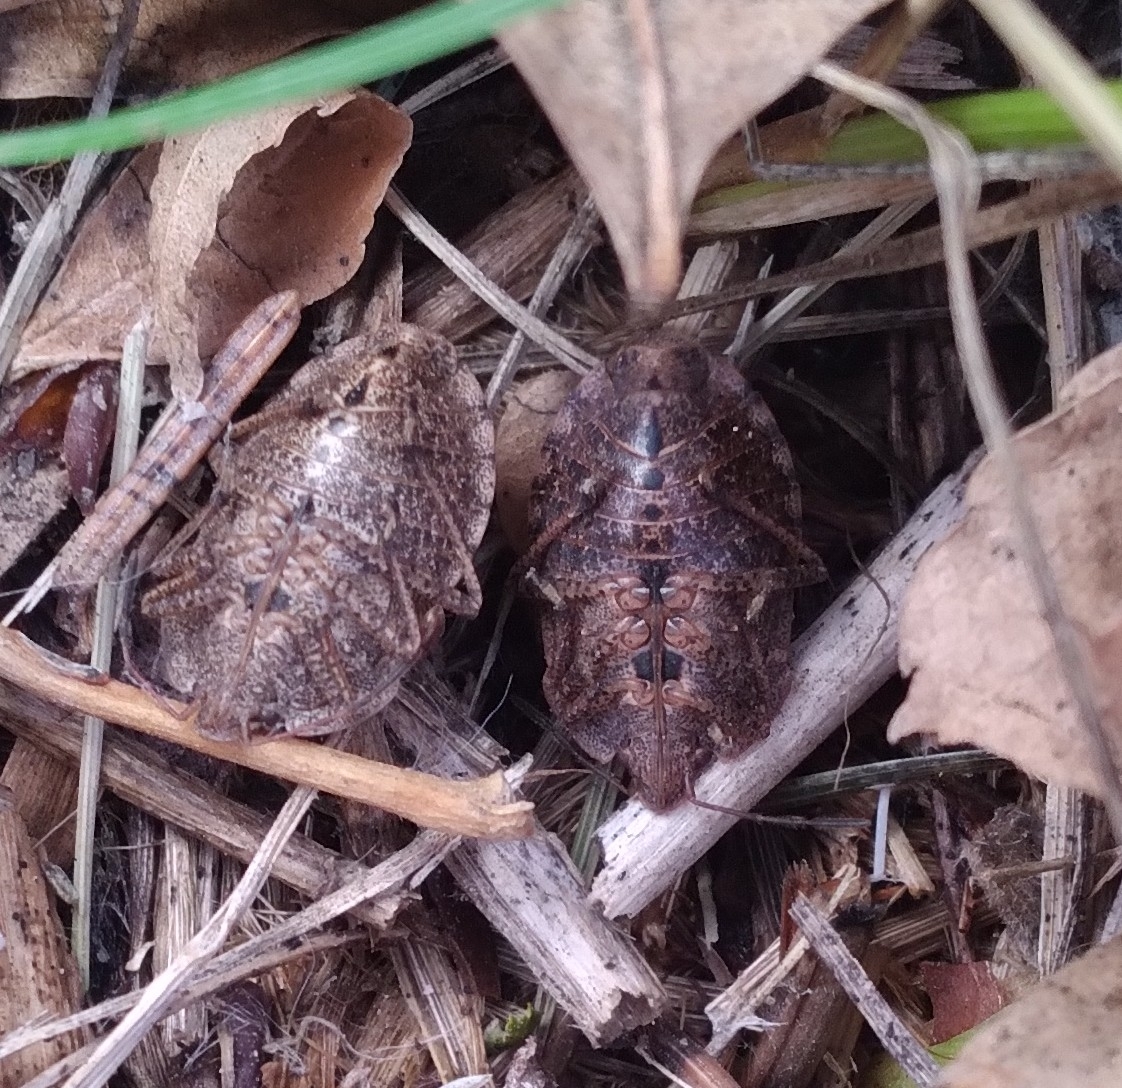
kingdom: Animalia
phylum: Arthropoda
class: Insecta
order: Hemiptera
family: Pentatomidae
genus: Menecles
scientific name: Menecles insertus
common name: Elf shoe stink bug
